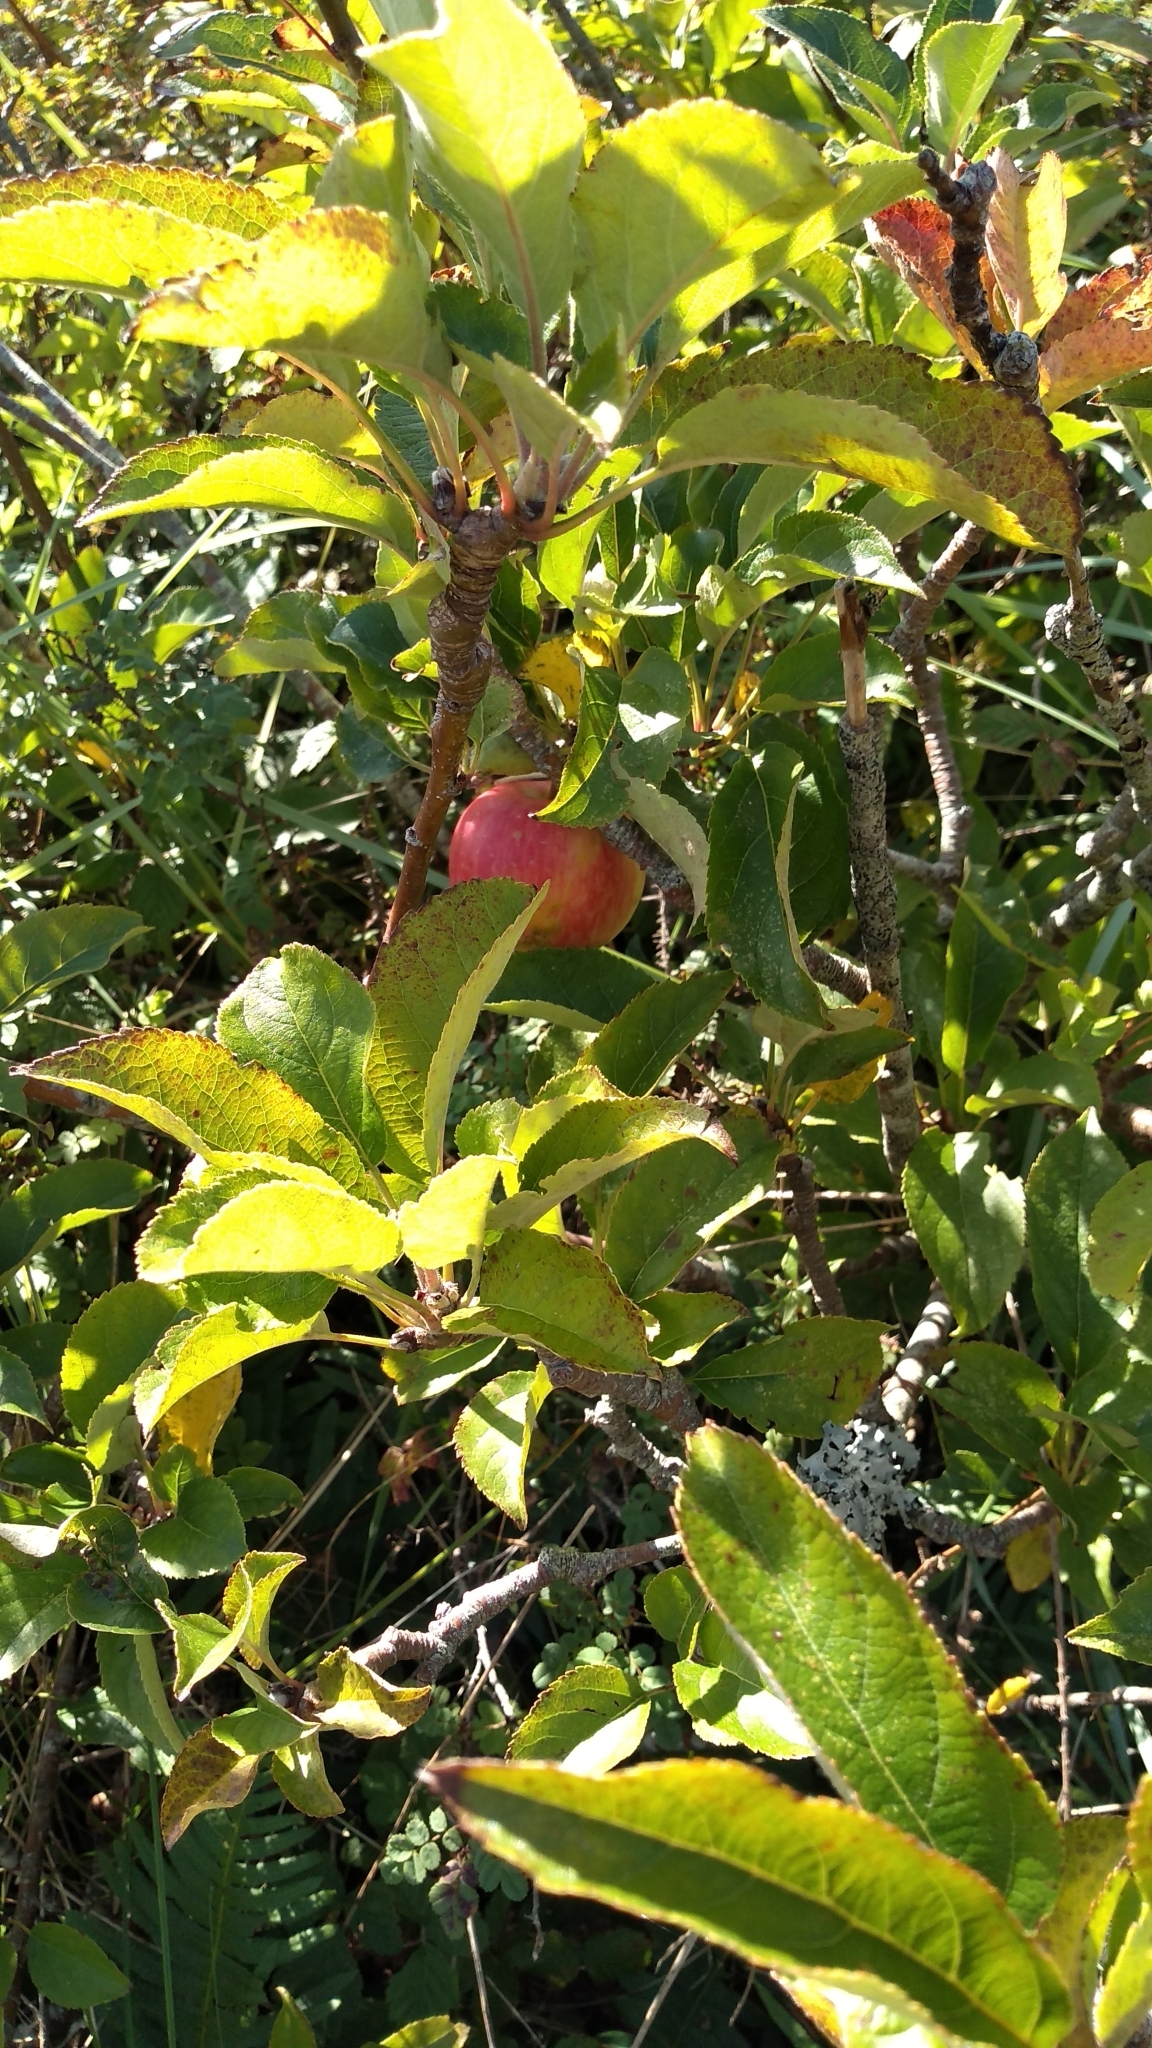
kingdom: Plantae
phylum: Tracheophyta
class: Magnoliopsida
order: Rosales
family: Rosaceae
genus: Malus
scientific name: Malus domestica
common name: Apple
